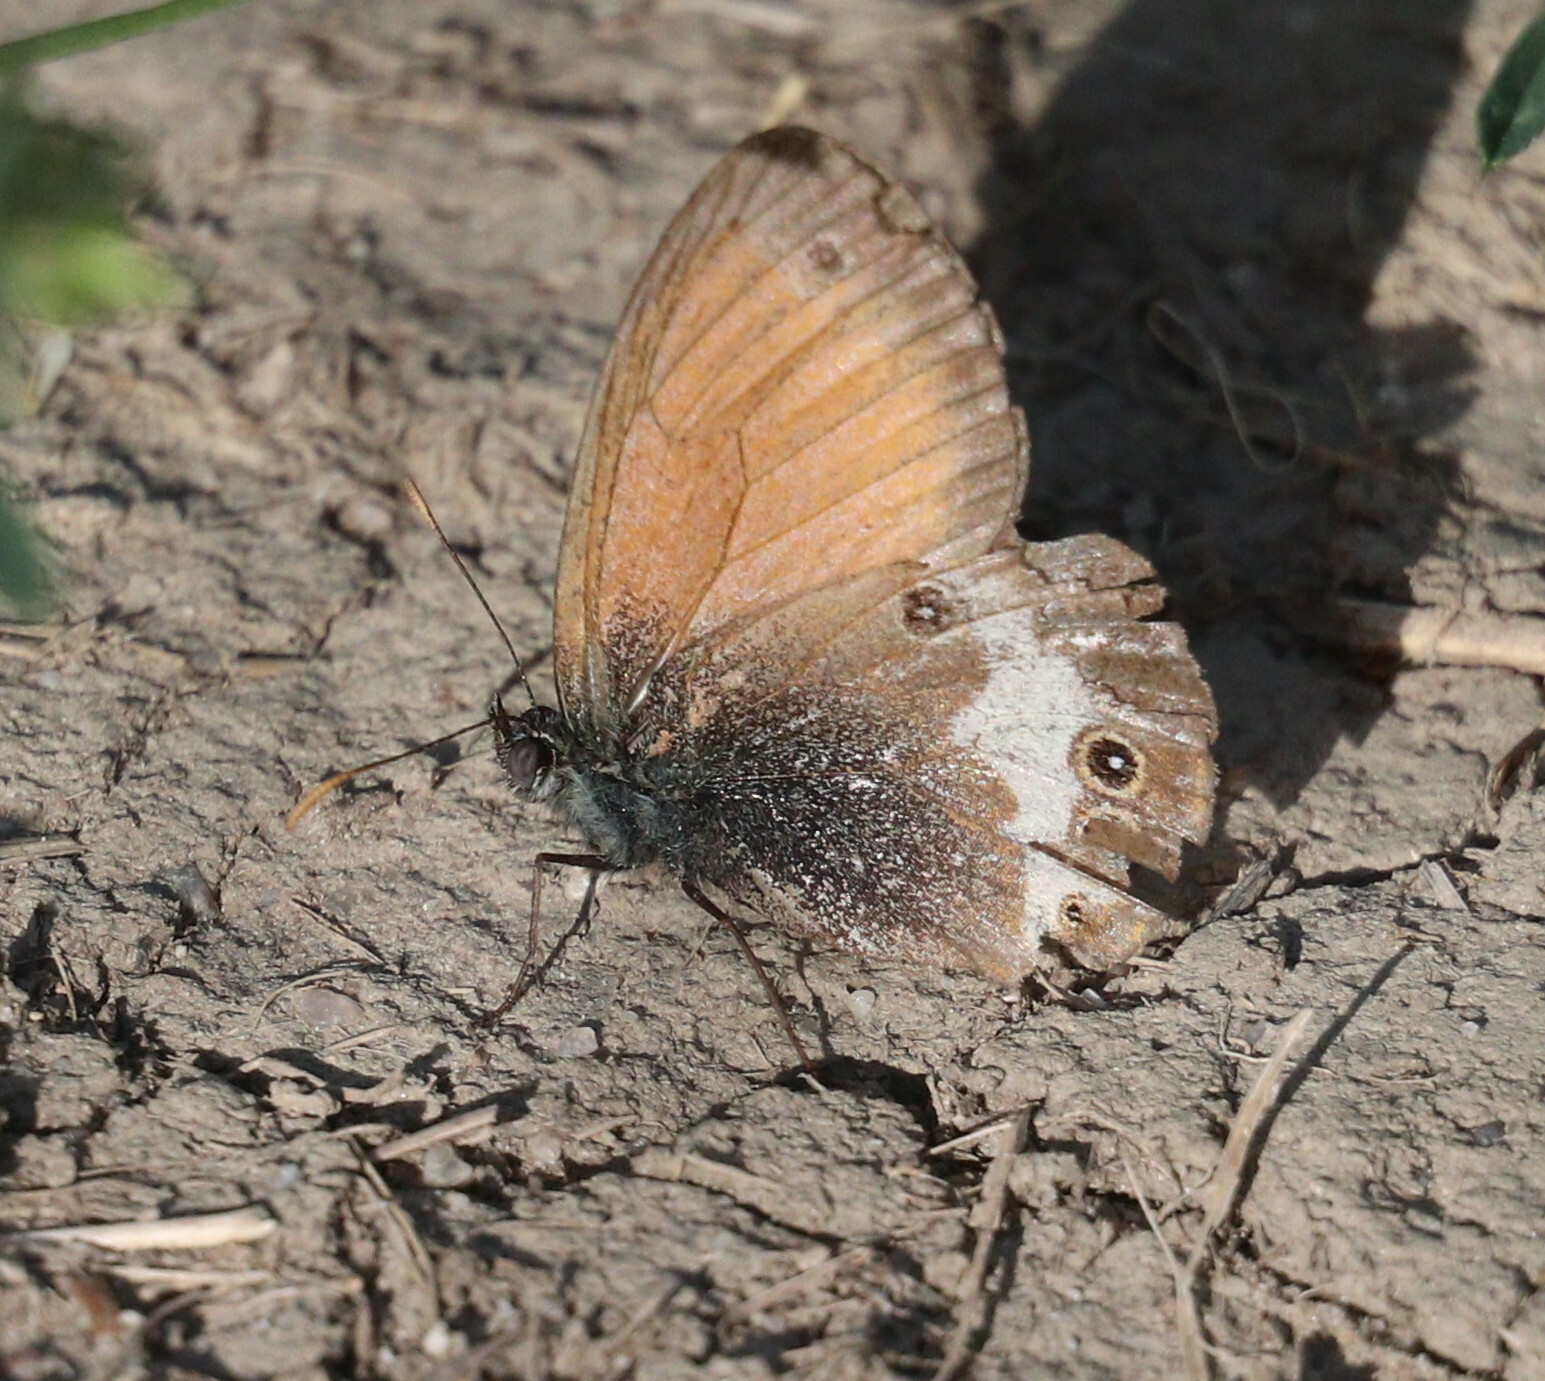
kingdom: Animalia
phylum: Arthropoda
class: Insecta
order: Lepidoptera
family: Nymphalidae
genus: Coenonympha
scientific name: Coenonympha arcania
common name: Pearly heath
